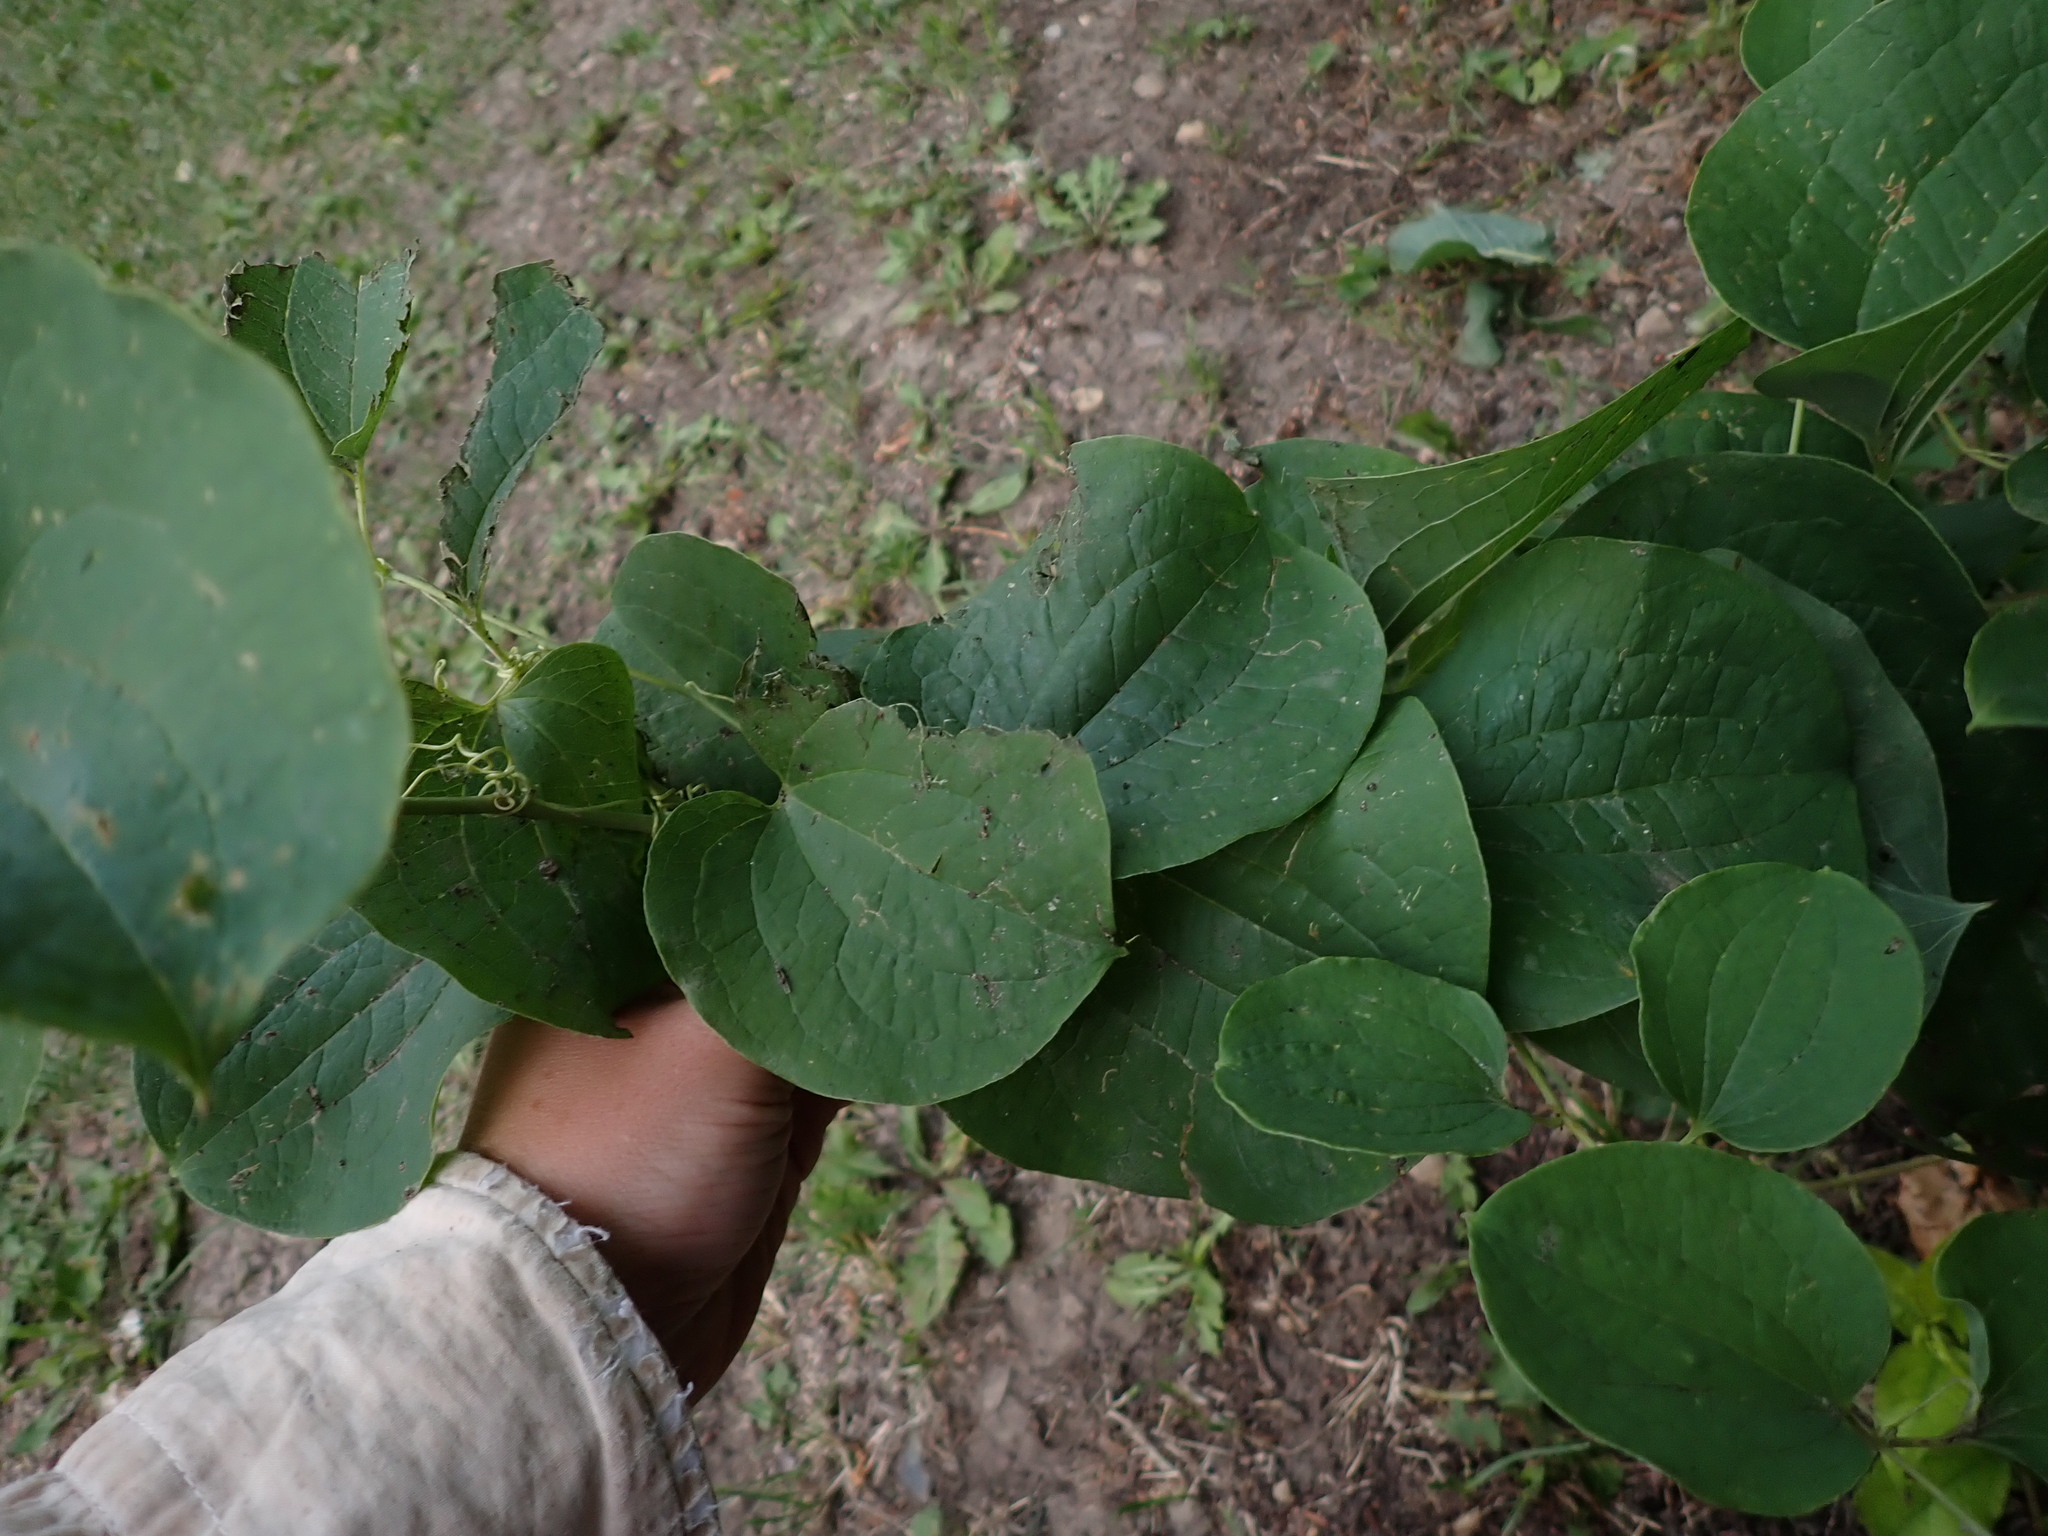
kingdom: Plantae
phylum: Tracheophyta
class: Liliopsida
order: Liliales
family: Smilacaceae
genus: Smilax
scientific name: Smilax lasioneura
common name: Blue ridge carrionflower
